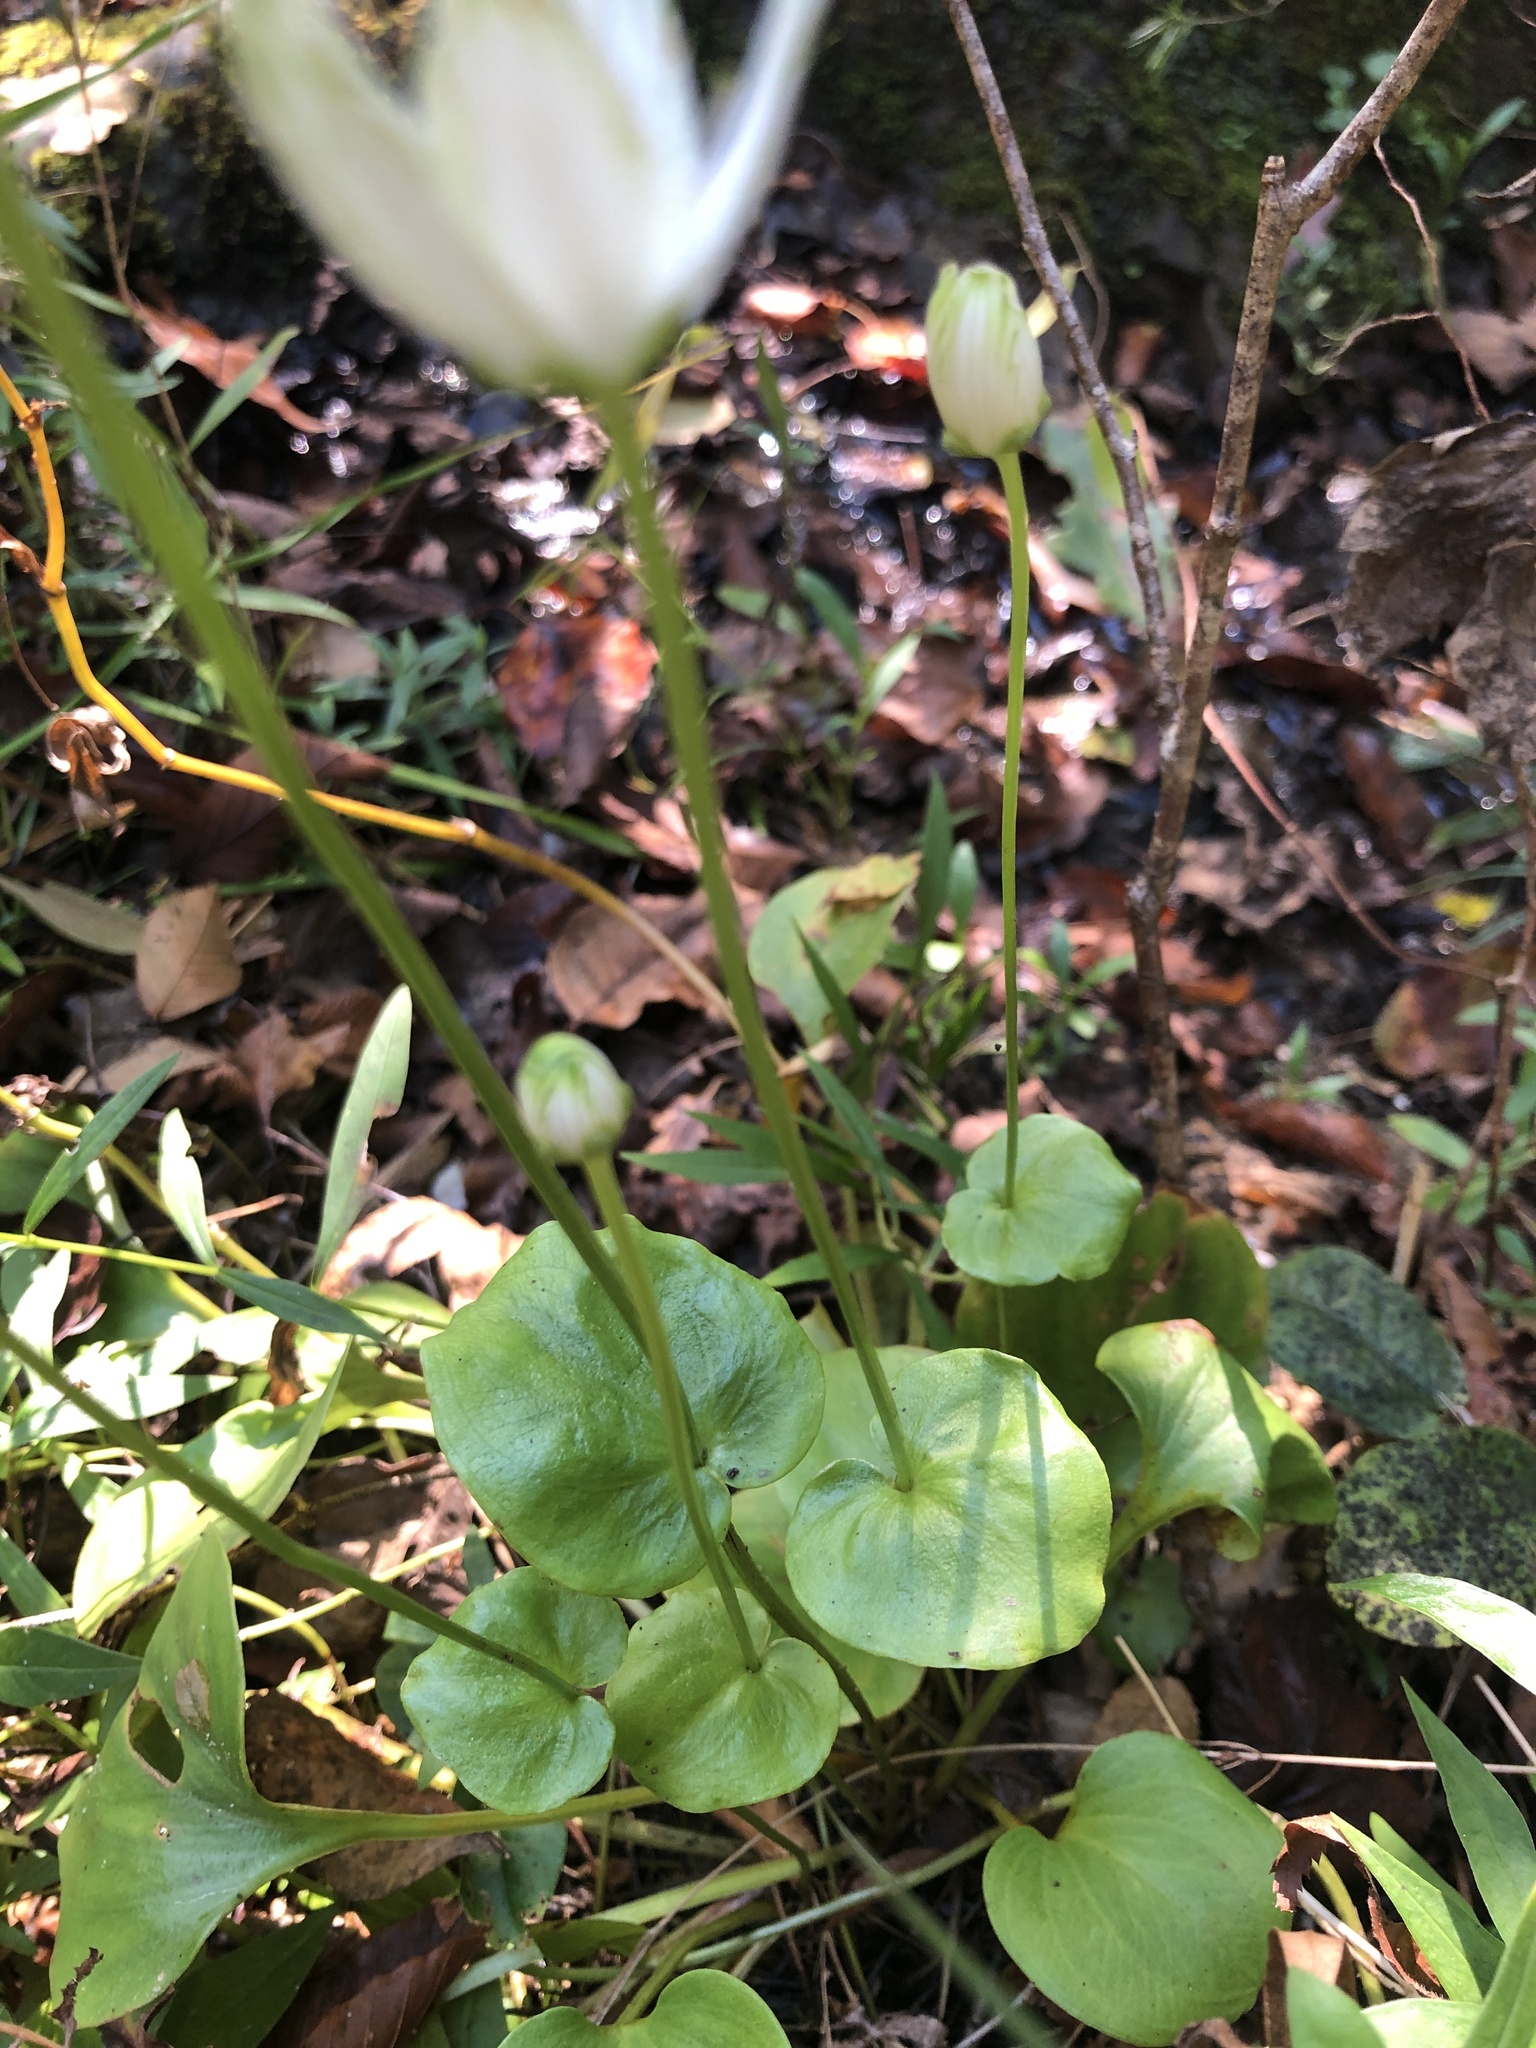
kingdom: Plantae
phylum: Tracheophyta
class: Magnoliopsida
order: Celastrales
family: Parnassiaceae
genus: Parnassia
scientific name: Parnassia asarifolia
